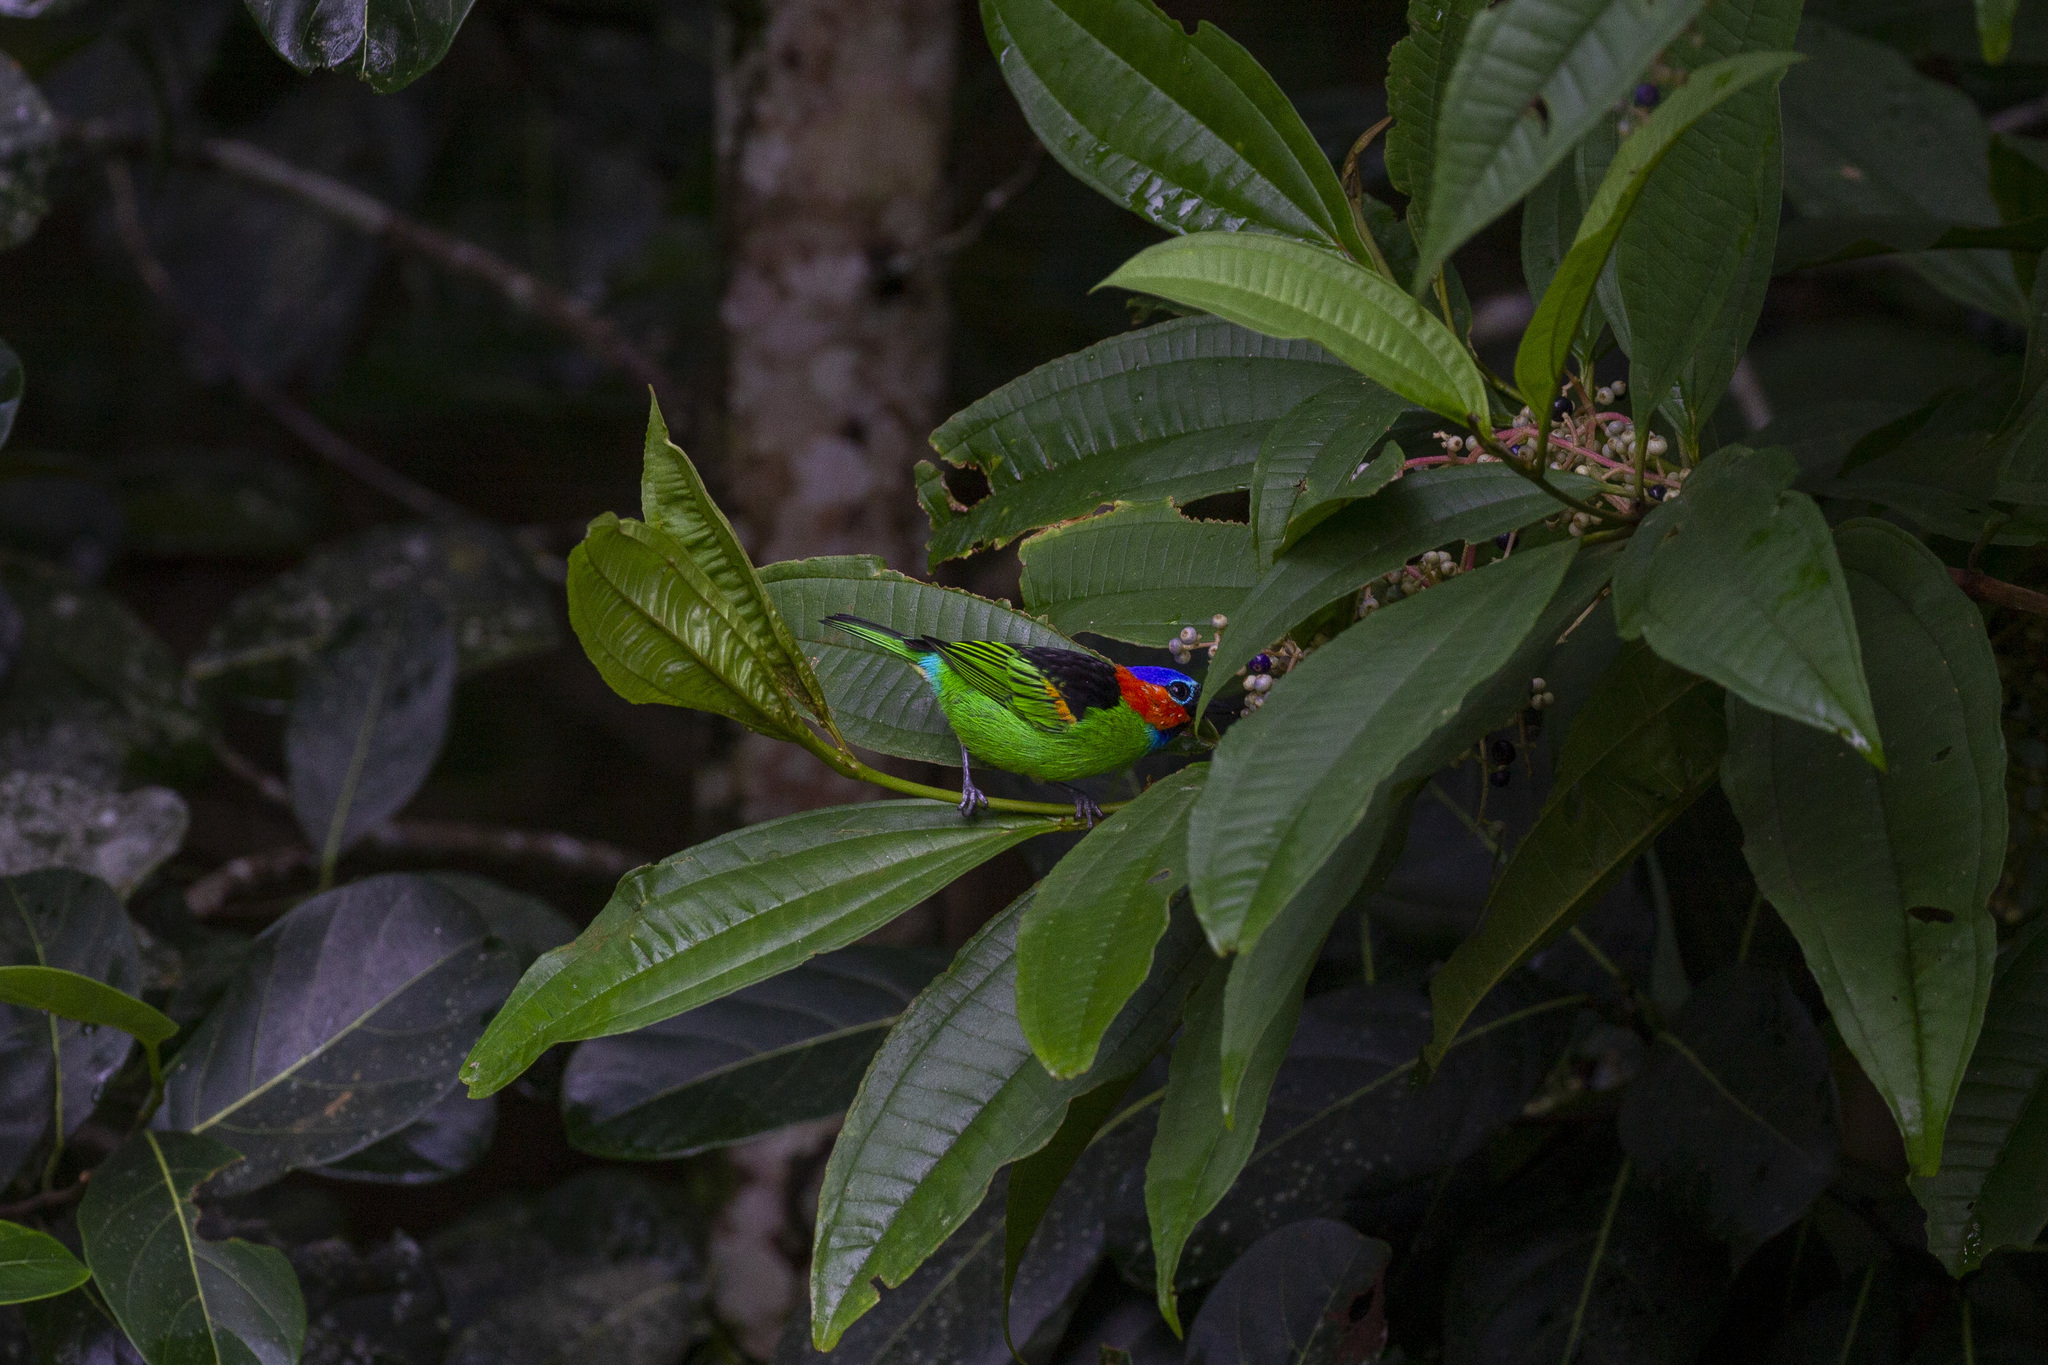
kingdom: Animalia
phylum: Chordata
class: Aves
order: Passeriformes
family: Thraupidae
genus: Tangara
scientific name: Tangara cyanocephala
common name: Red-necked tanager
